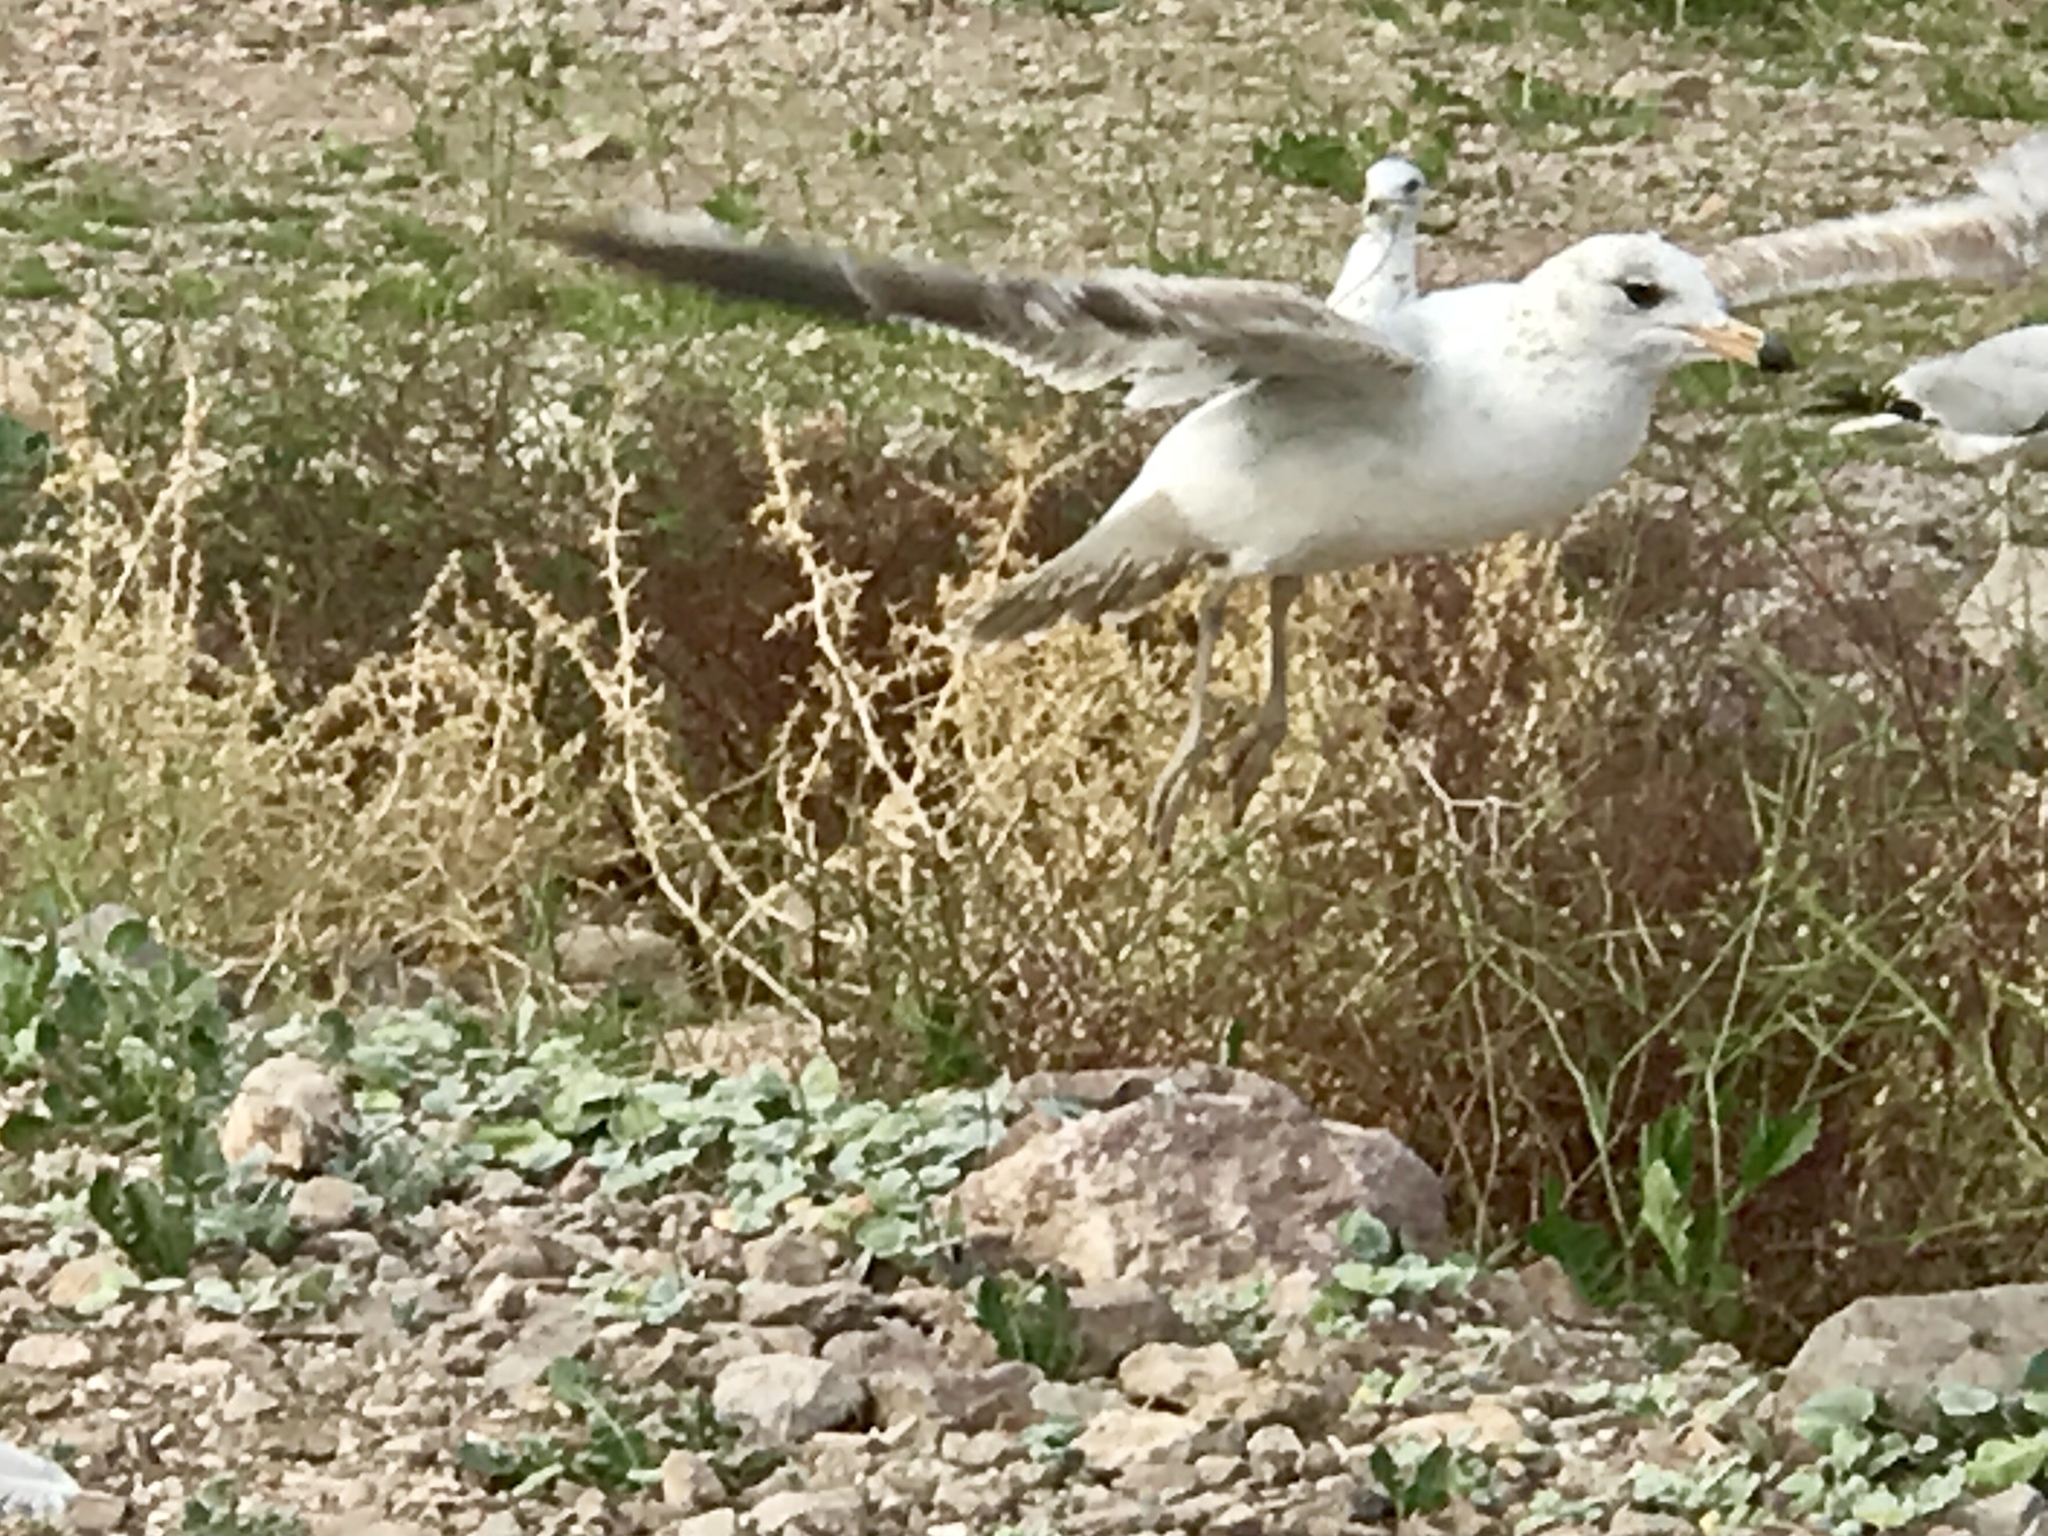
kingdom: Animalia
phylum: Chordata
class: Aves
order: Charadriiformes
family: Laridae
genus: Larus
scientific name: Larus delawarensis
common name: Ring-billed gull
